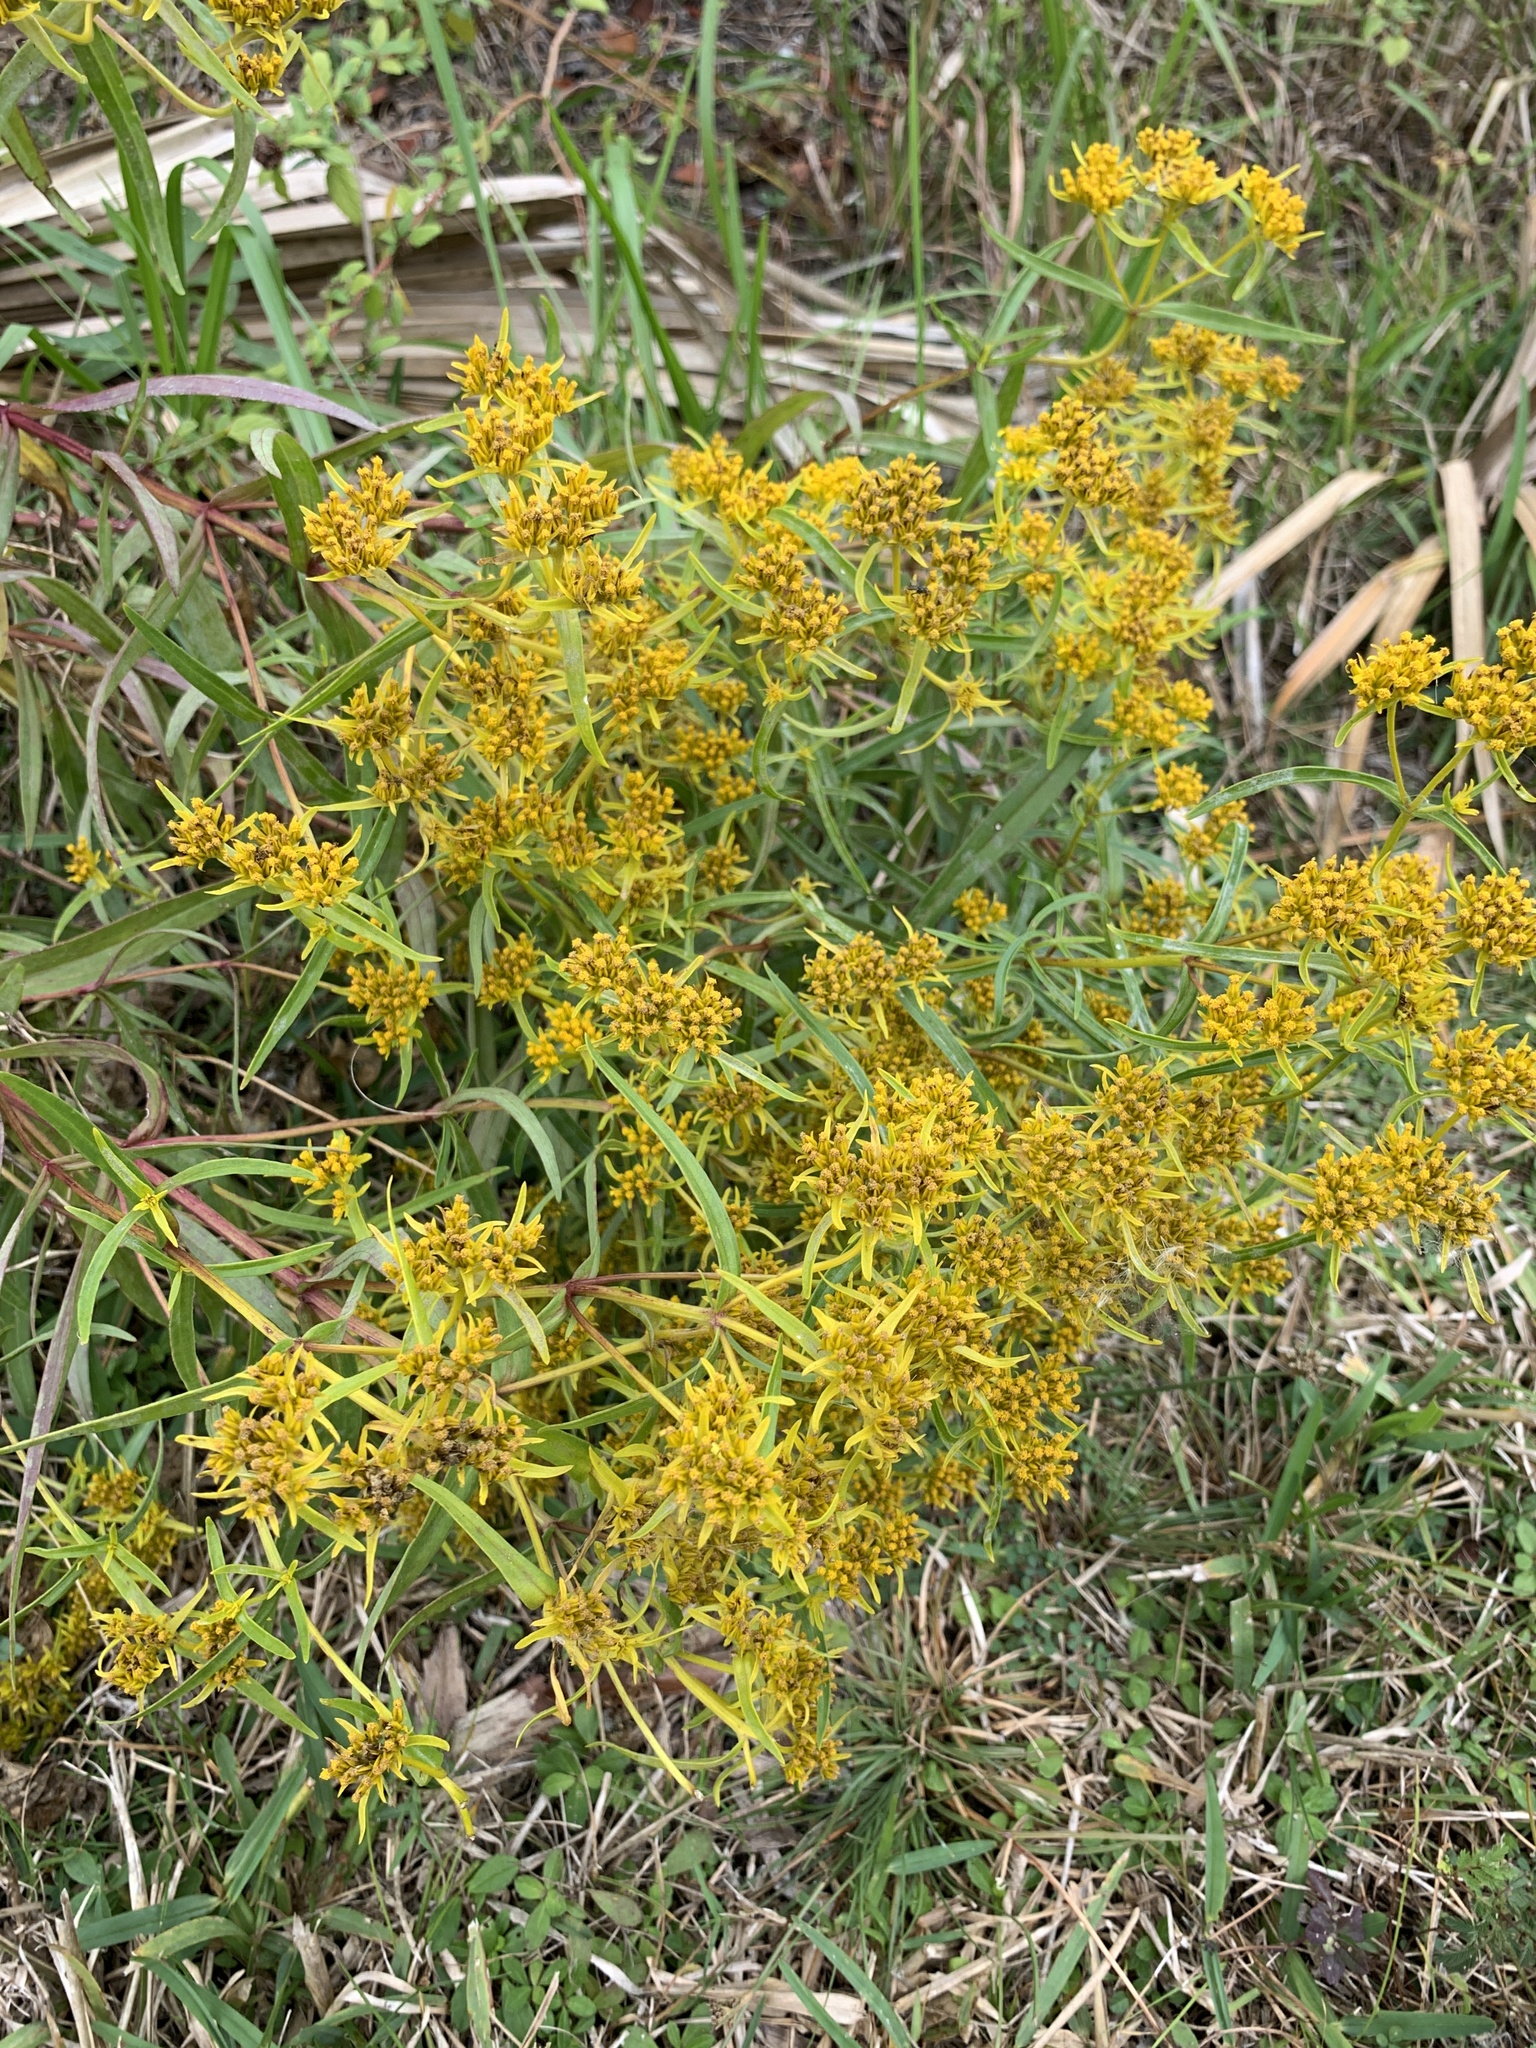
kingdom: Plantae
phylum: Tracheophyta
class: Magnoliopsida
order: Asterales
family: Asteraceae
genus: Flaveria
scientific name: Flaveria linearis
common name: Yellowtop
